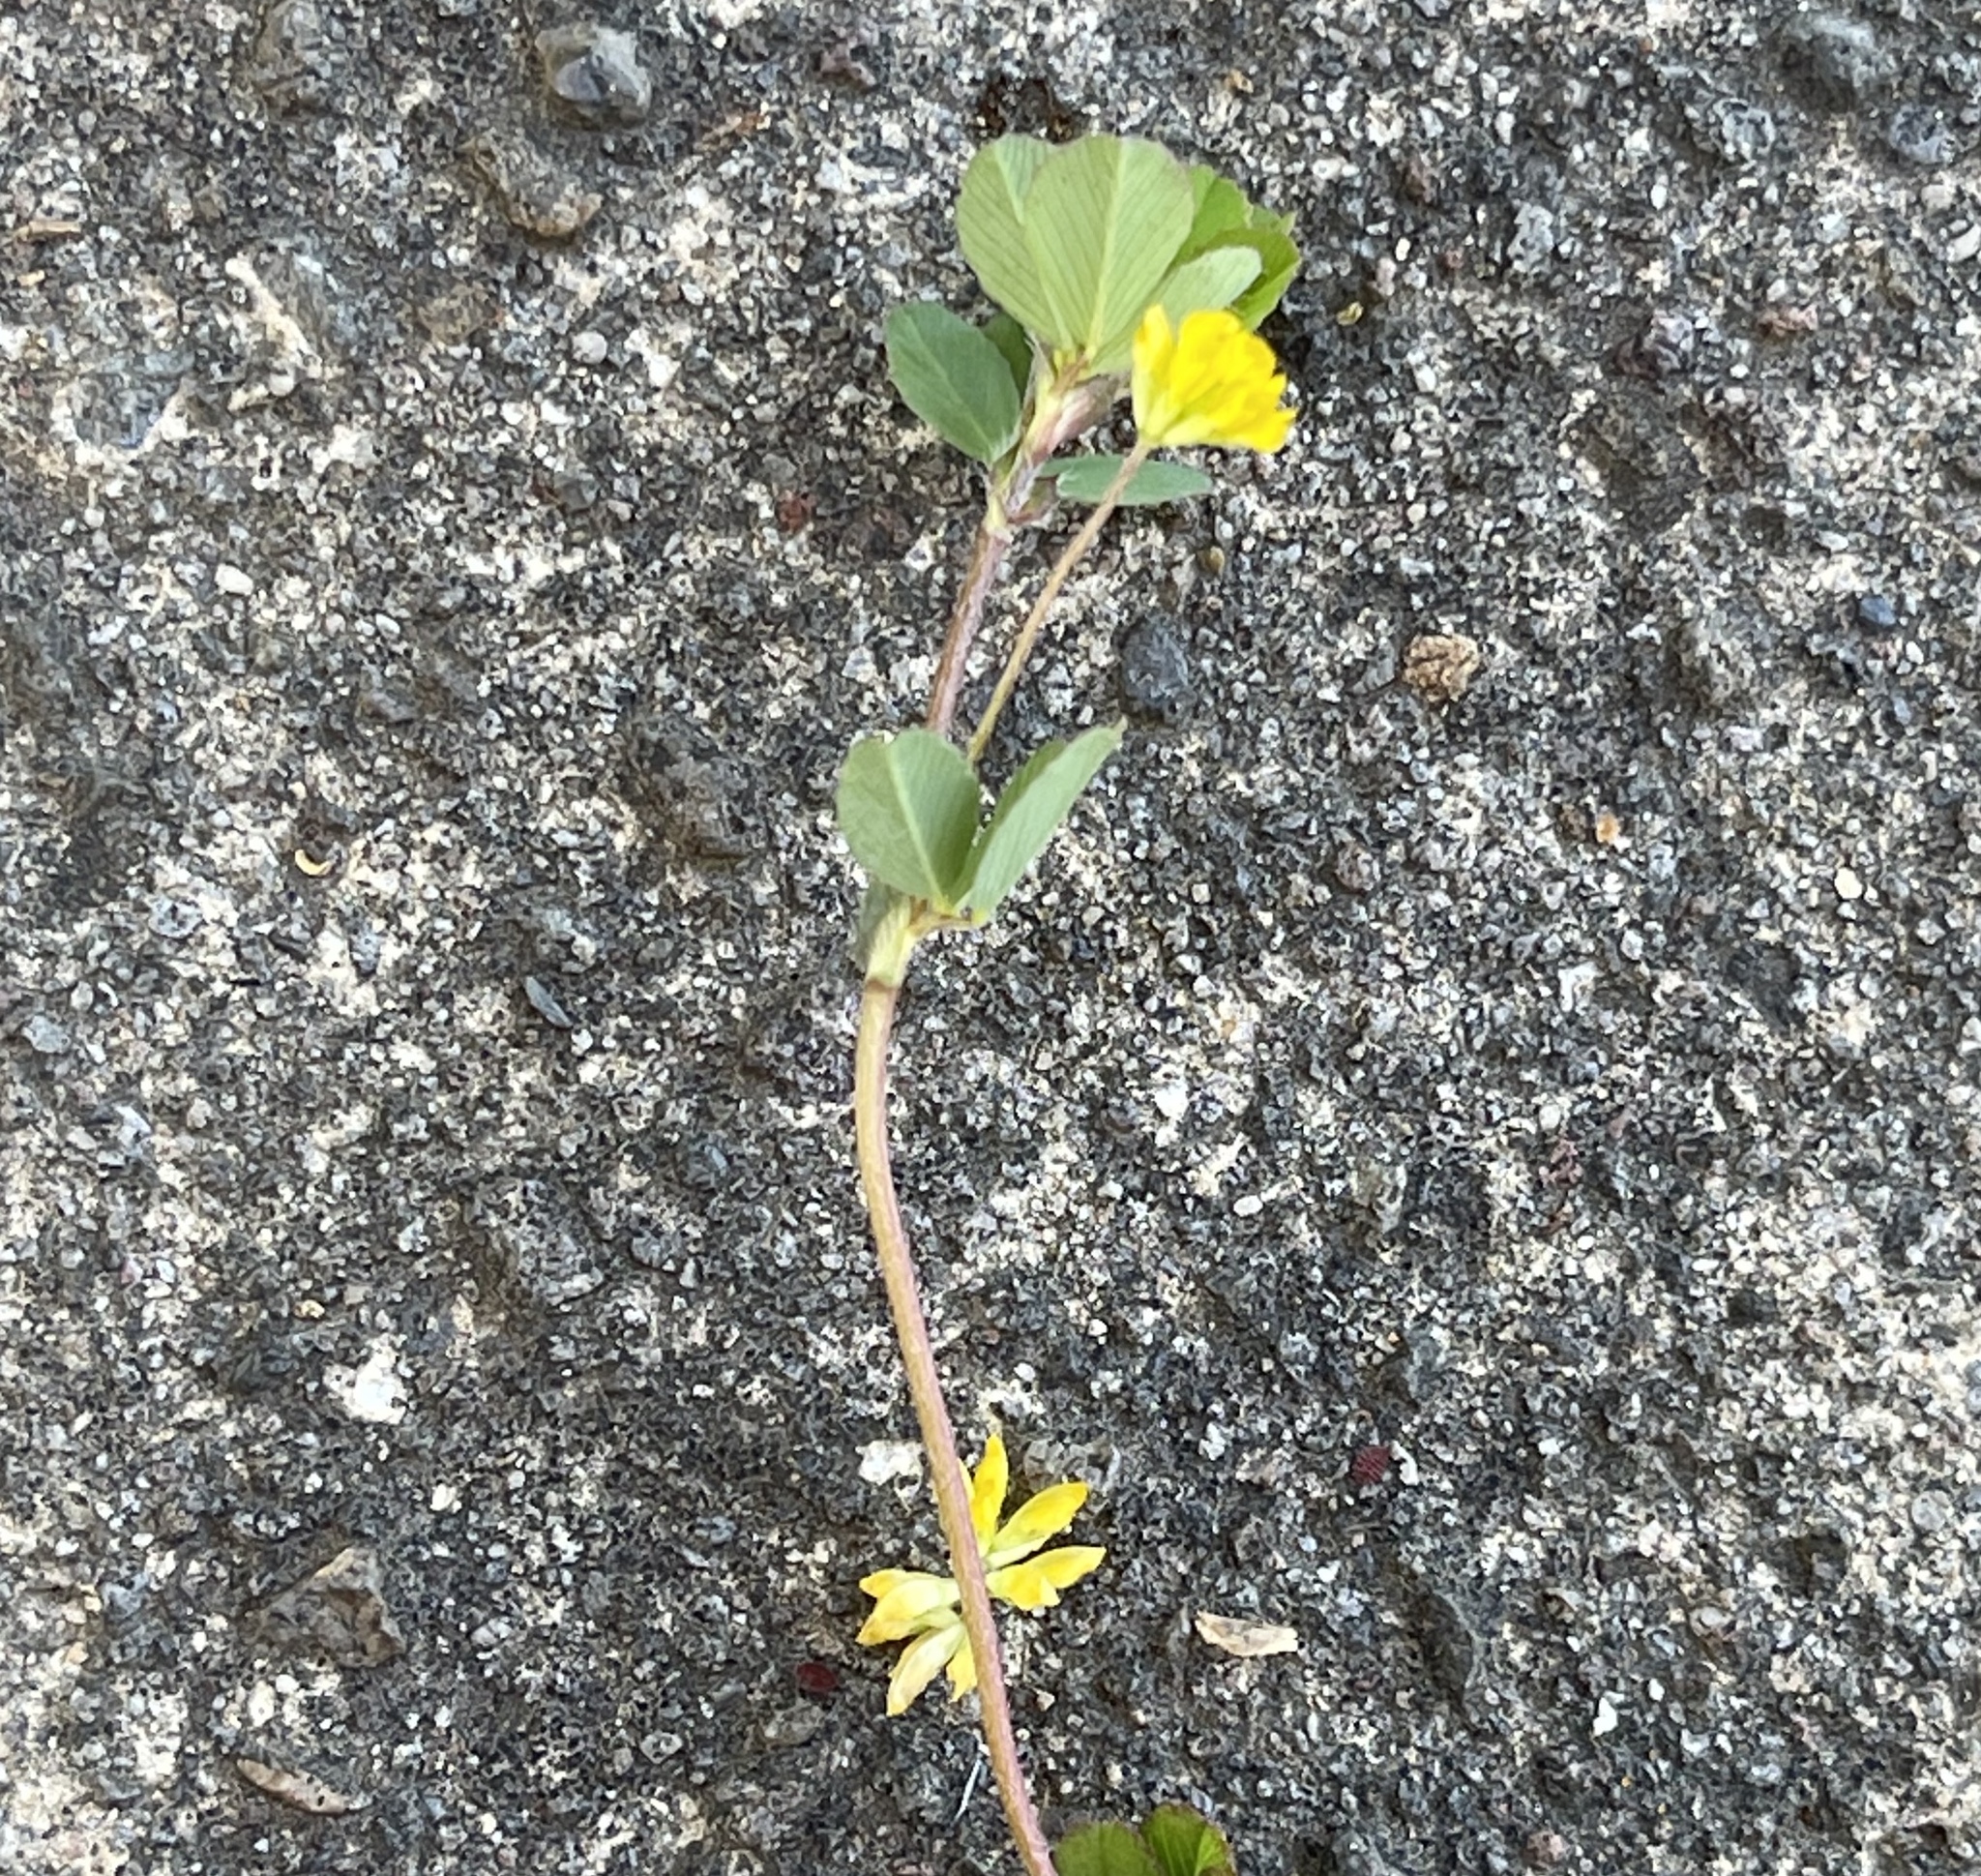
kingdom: Plantae
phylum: Tracheophyta
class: Magnoliopsida
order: Fabales
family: Fabaceae
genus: Trifolium
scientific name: Trifolium dubium
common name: Suckling clover
